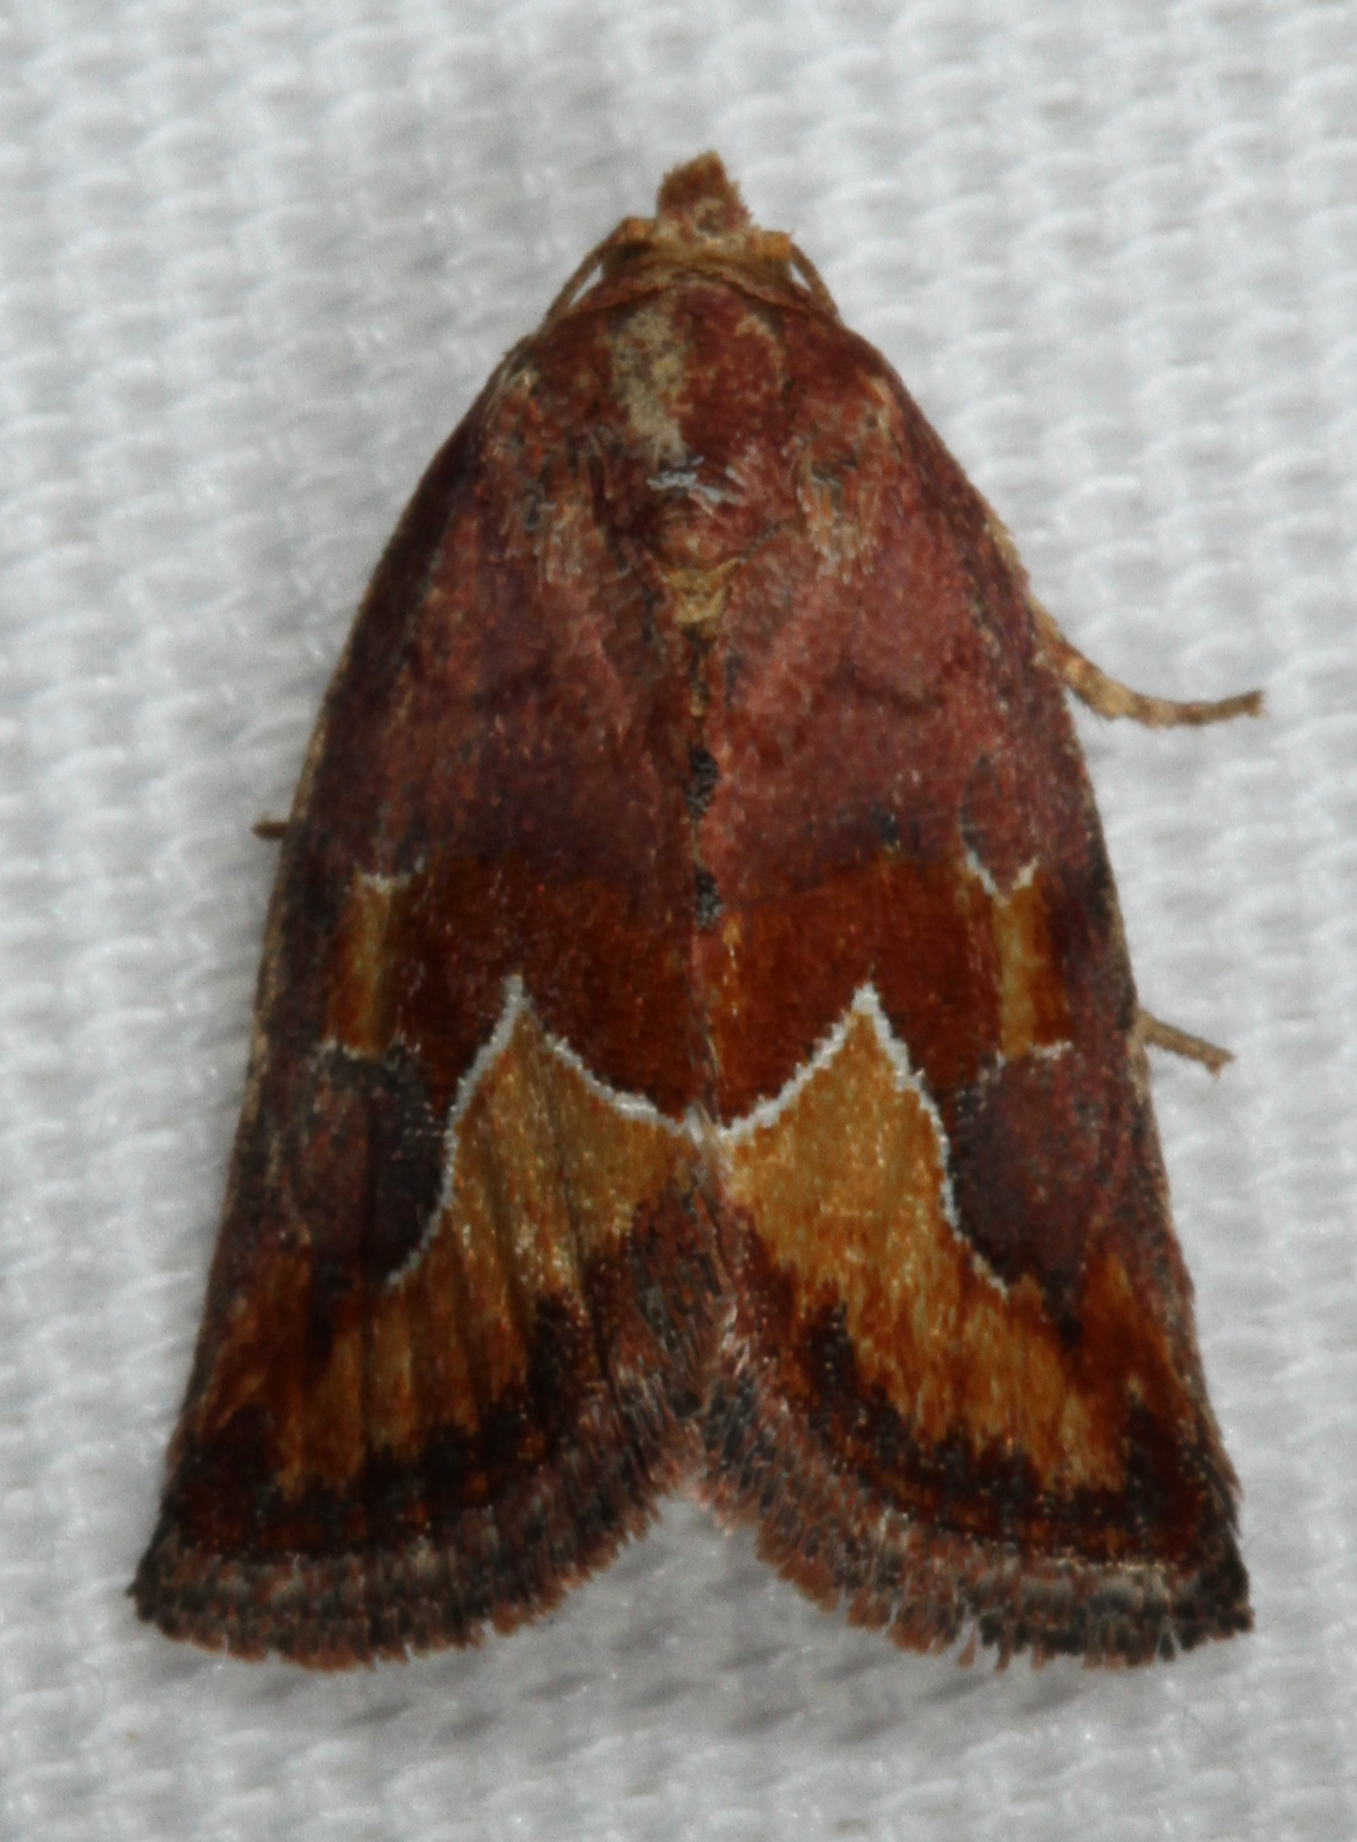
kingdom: Animalia
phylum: Arthropoda
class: Insecta
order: Lepidoptera
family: Noctuidae
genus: Deltote
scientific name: Deltote bellicula
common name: Bog glyph
